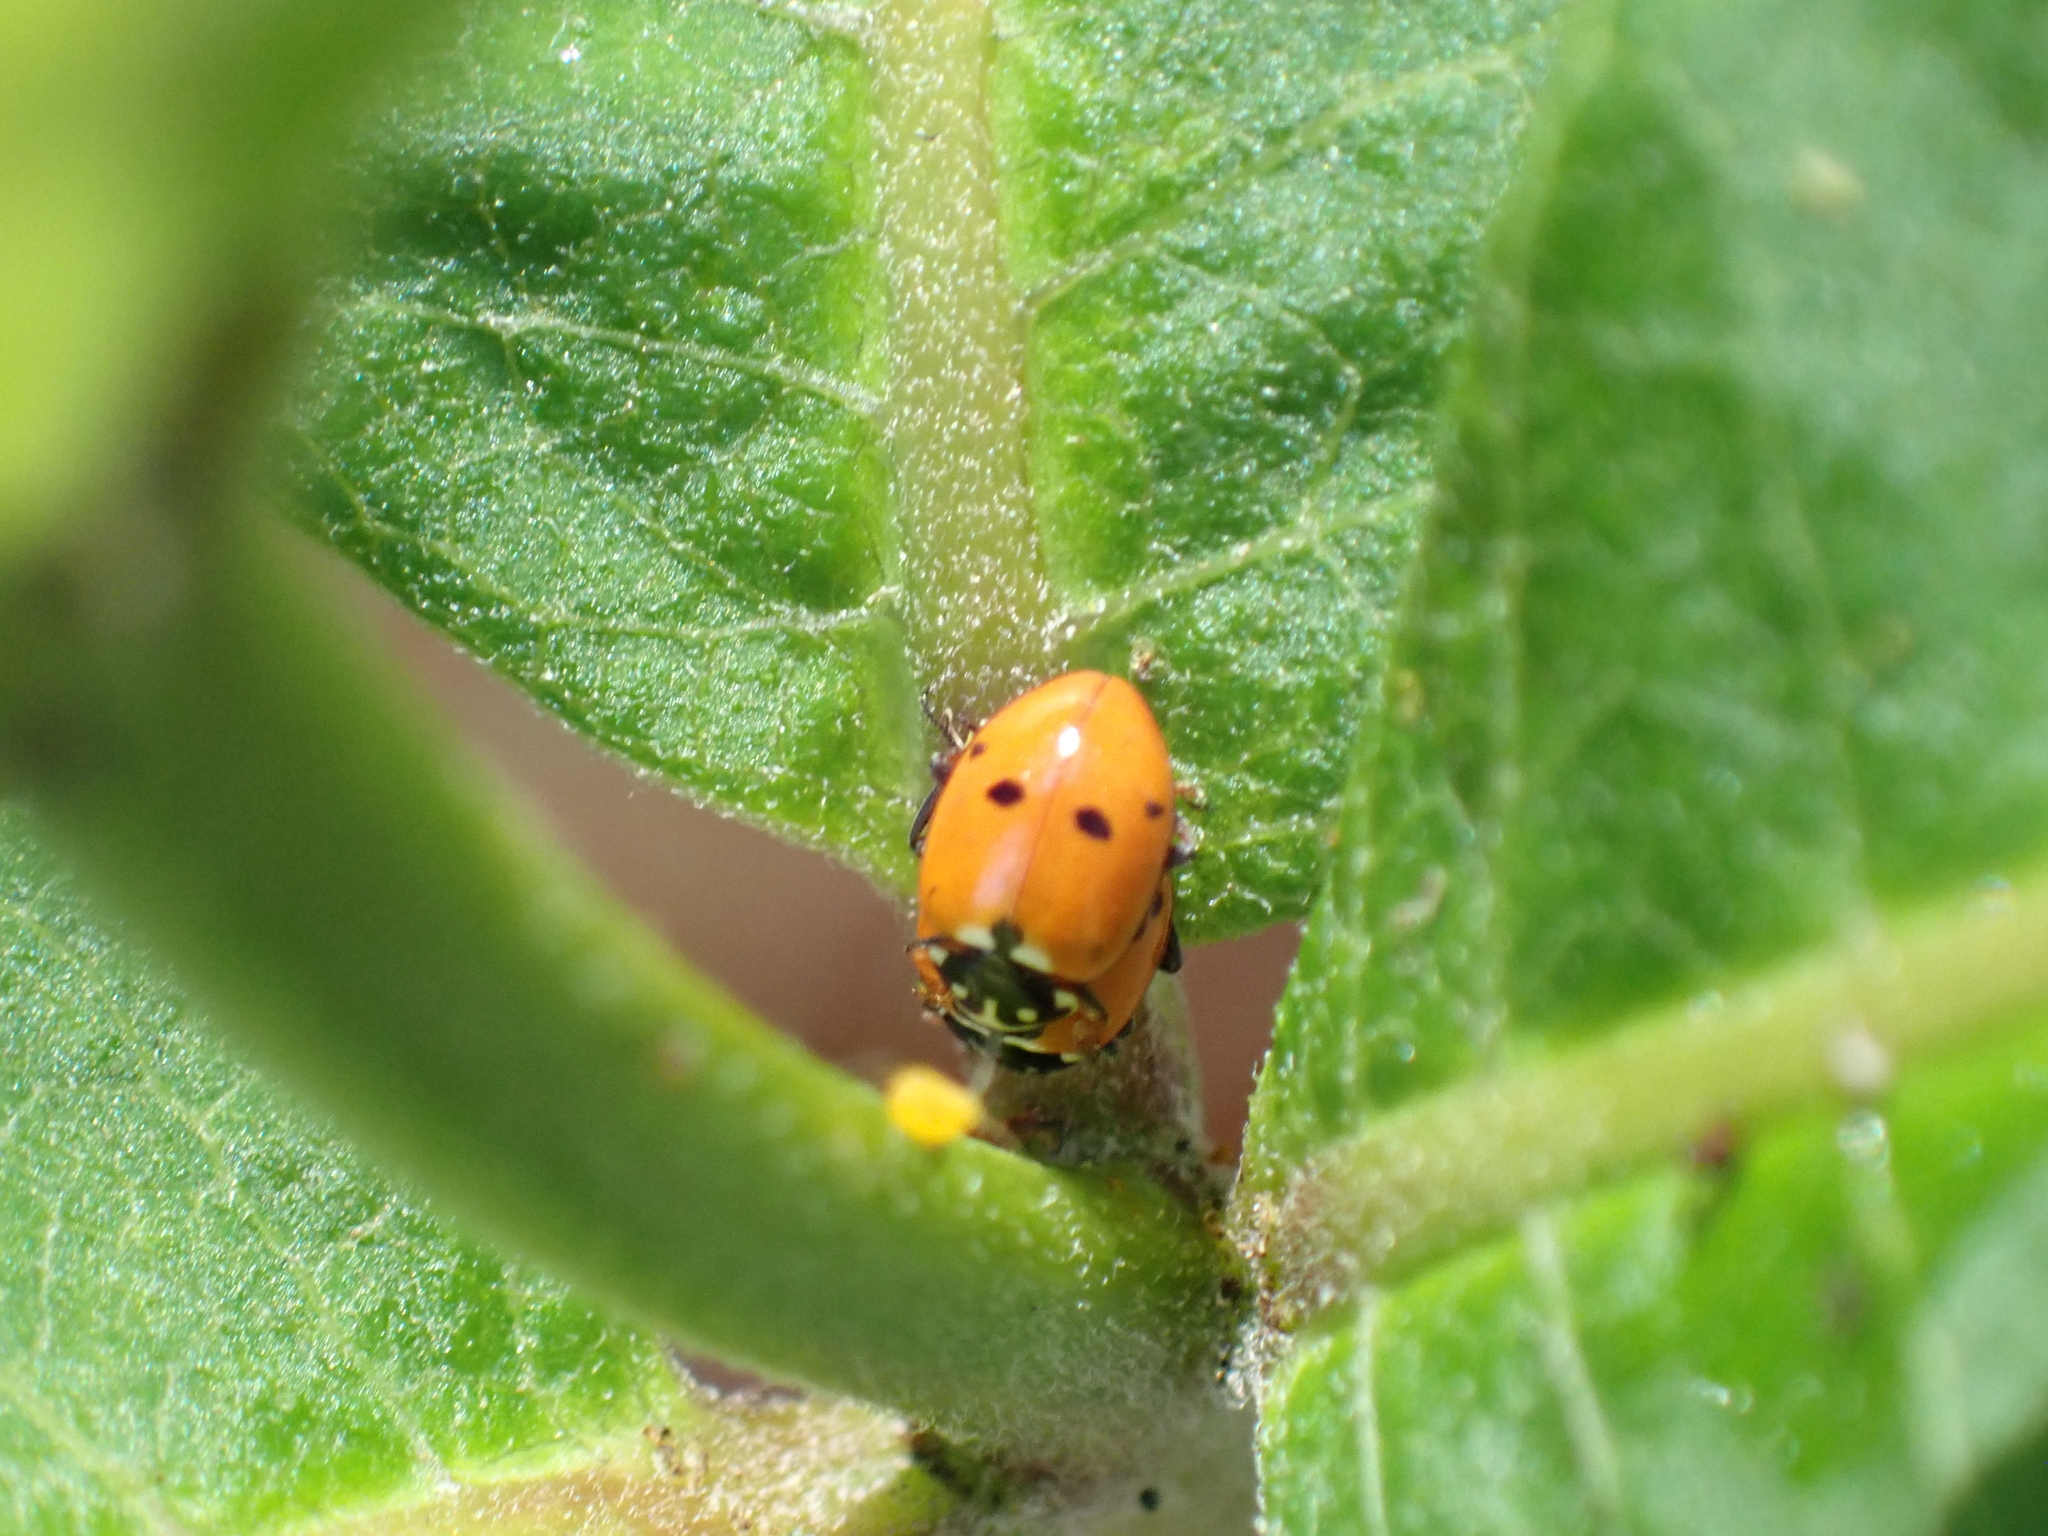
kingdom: Animalia
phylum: Arthropoda
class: Insecta
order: Coleoptera
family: Coccinellidae
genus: Hippodamia
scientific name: Hippodamia variegata
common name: Ladybird beetle
